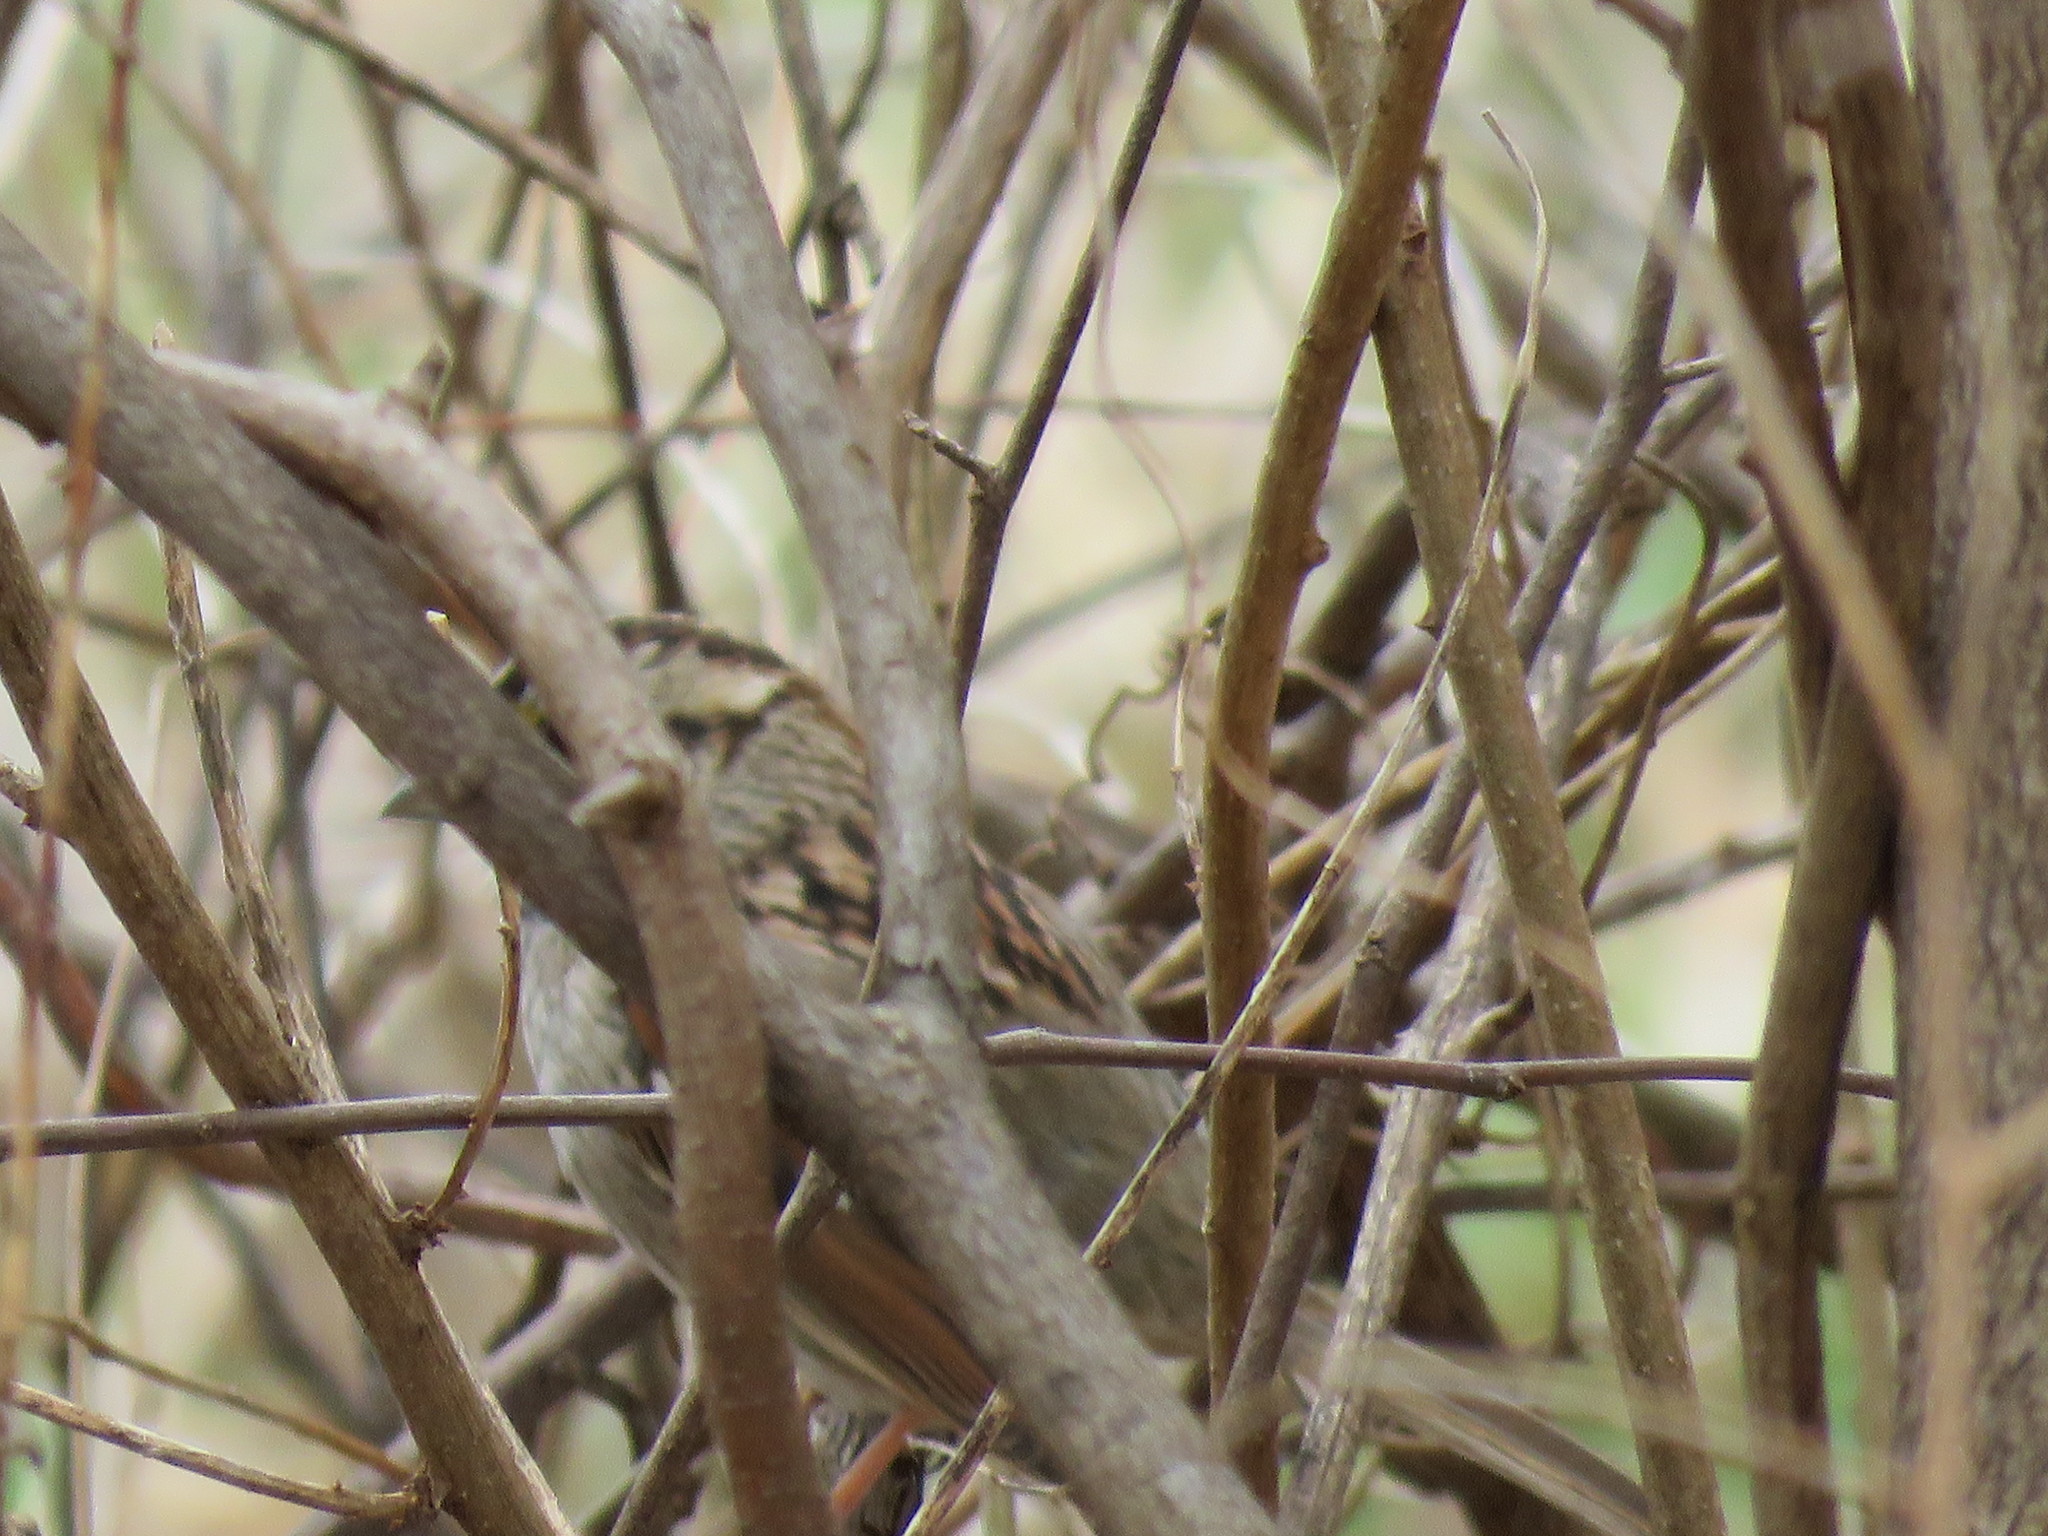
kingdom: Animalia
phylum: Chordata
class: Aves
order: Passeriformes
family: Passerellidae
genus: Zonotrichia
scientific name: Zonotrichia albicollis
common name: White-throated sparrow
